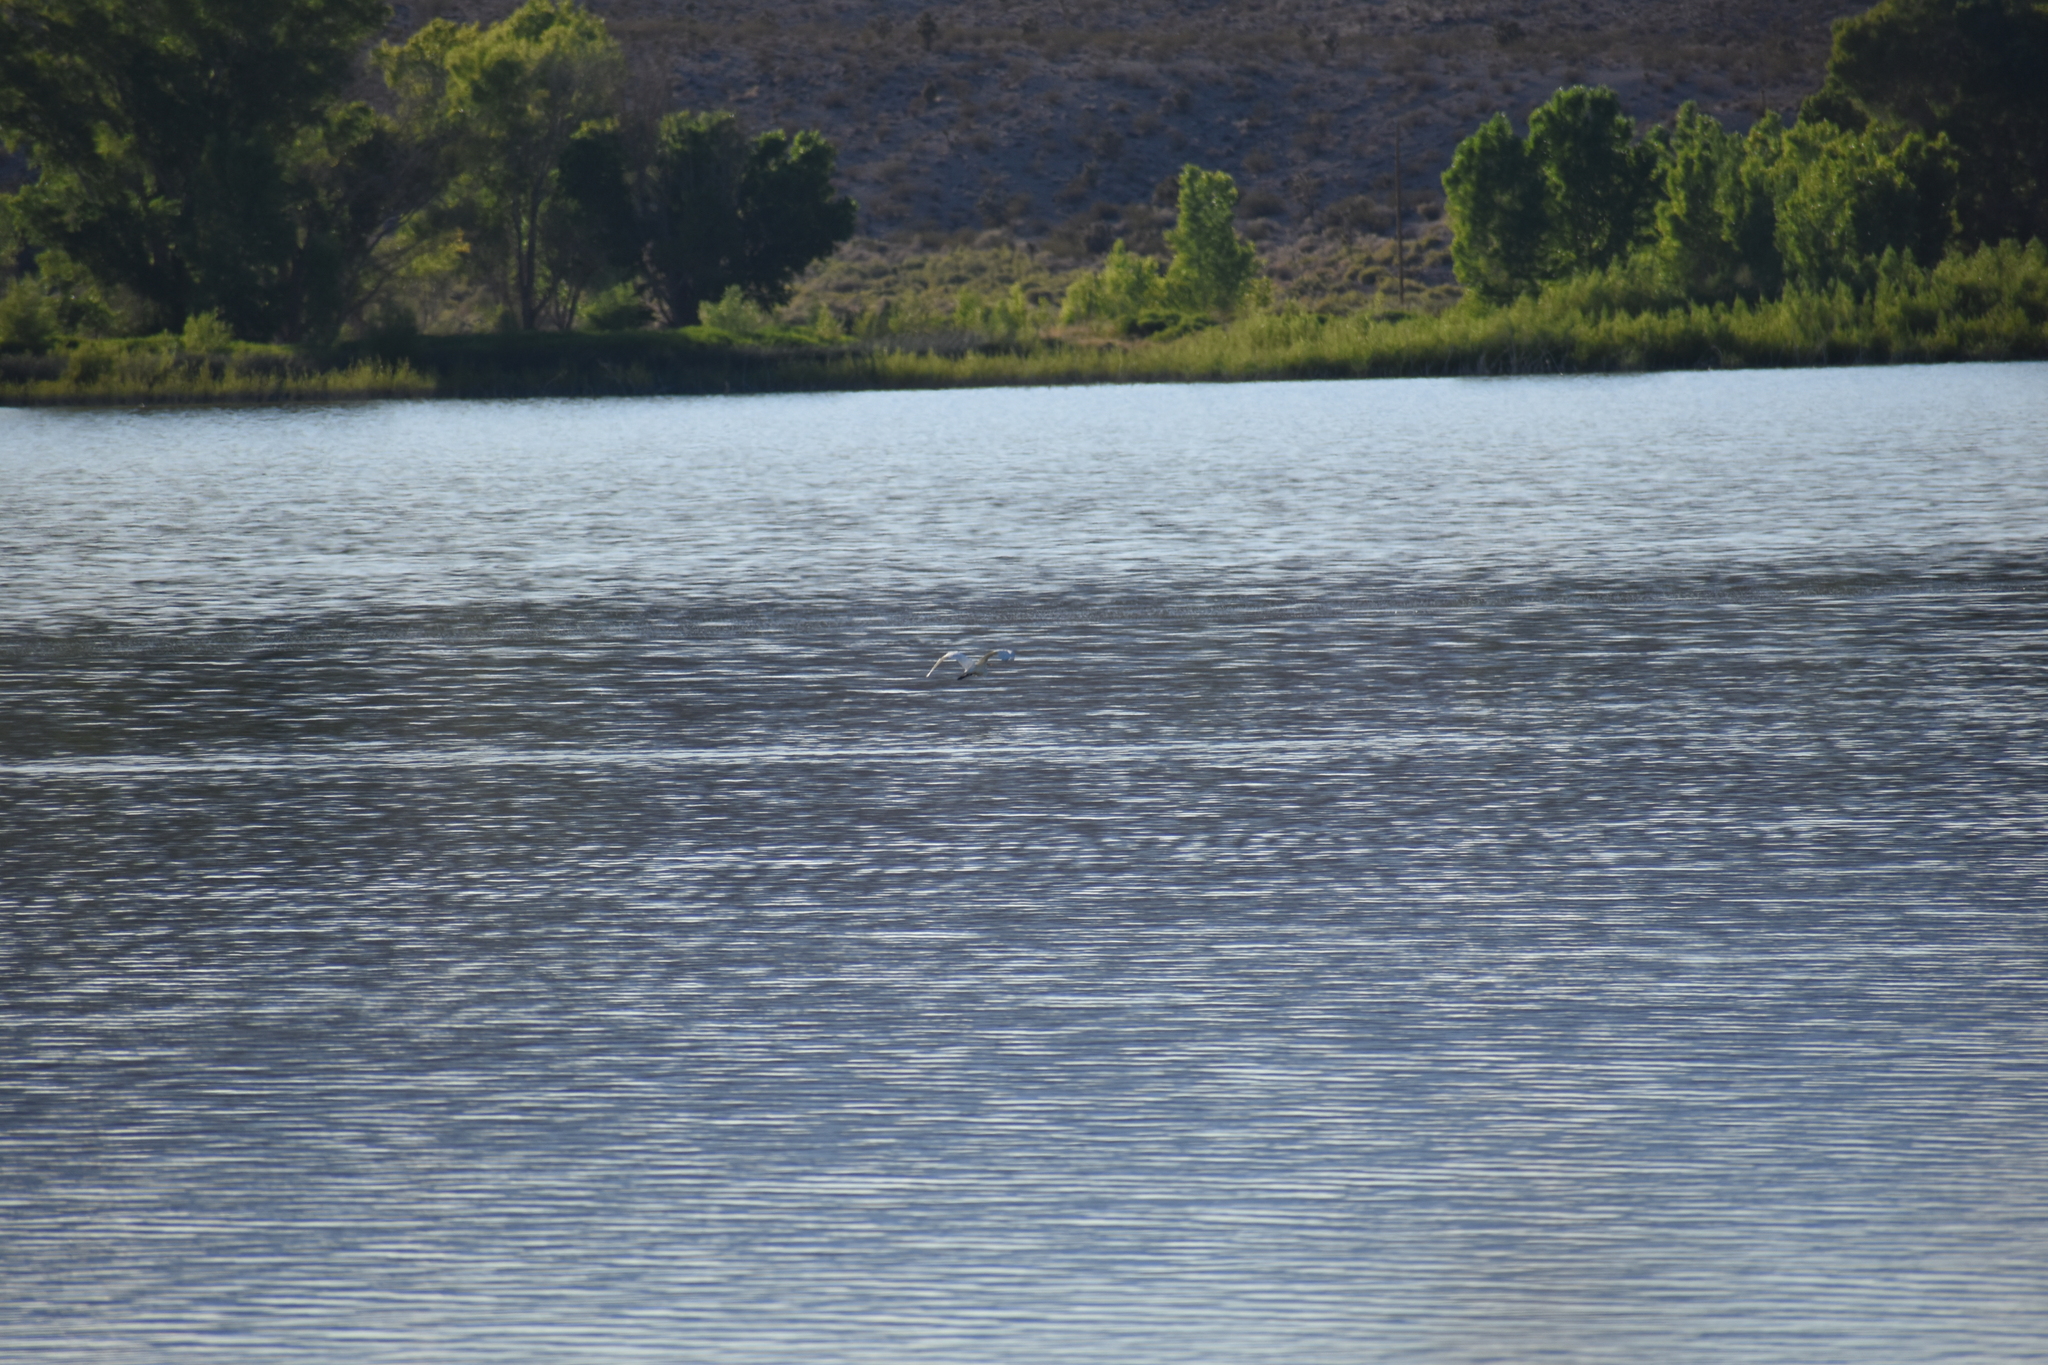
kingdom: Animalia
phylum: Chordata
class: Aves
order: Pelecaniformes
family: Ardeidae
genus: Ardea
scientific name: Ardea alba
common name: Great egret
